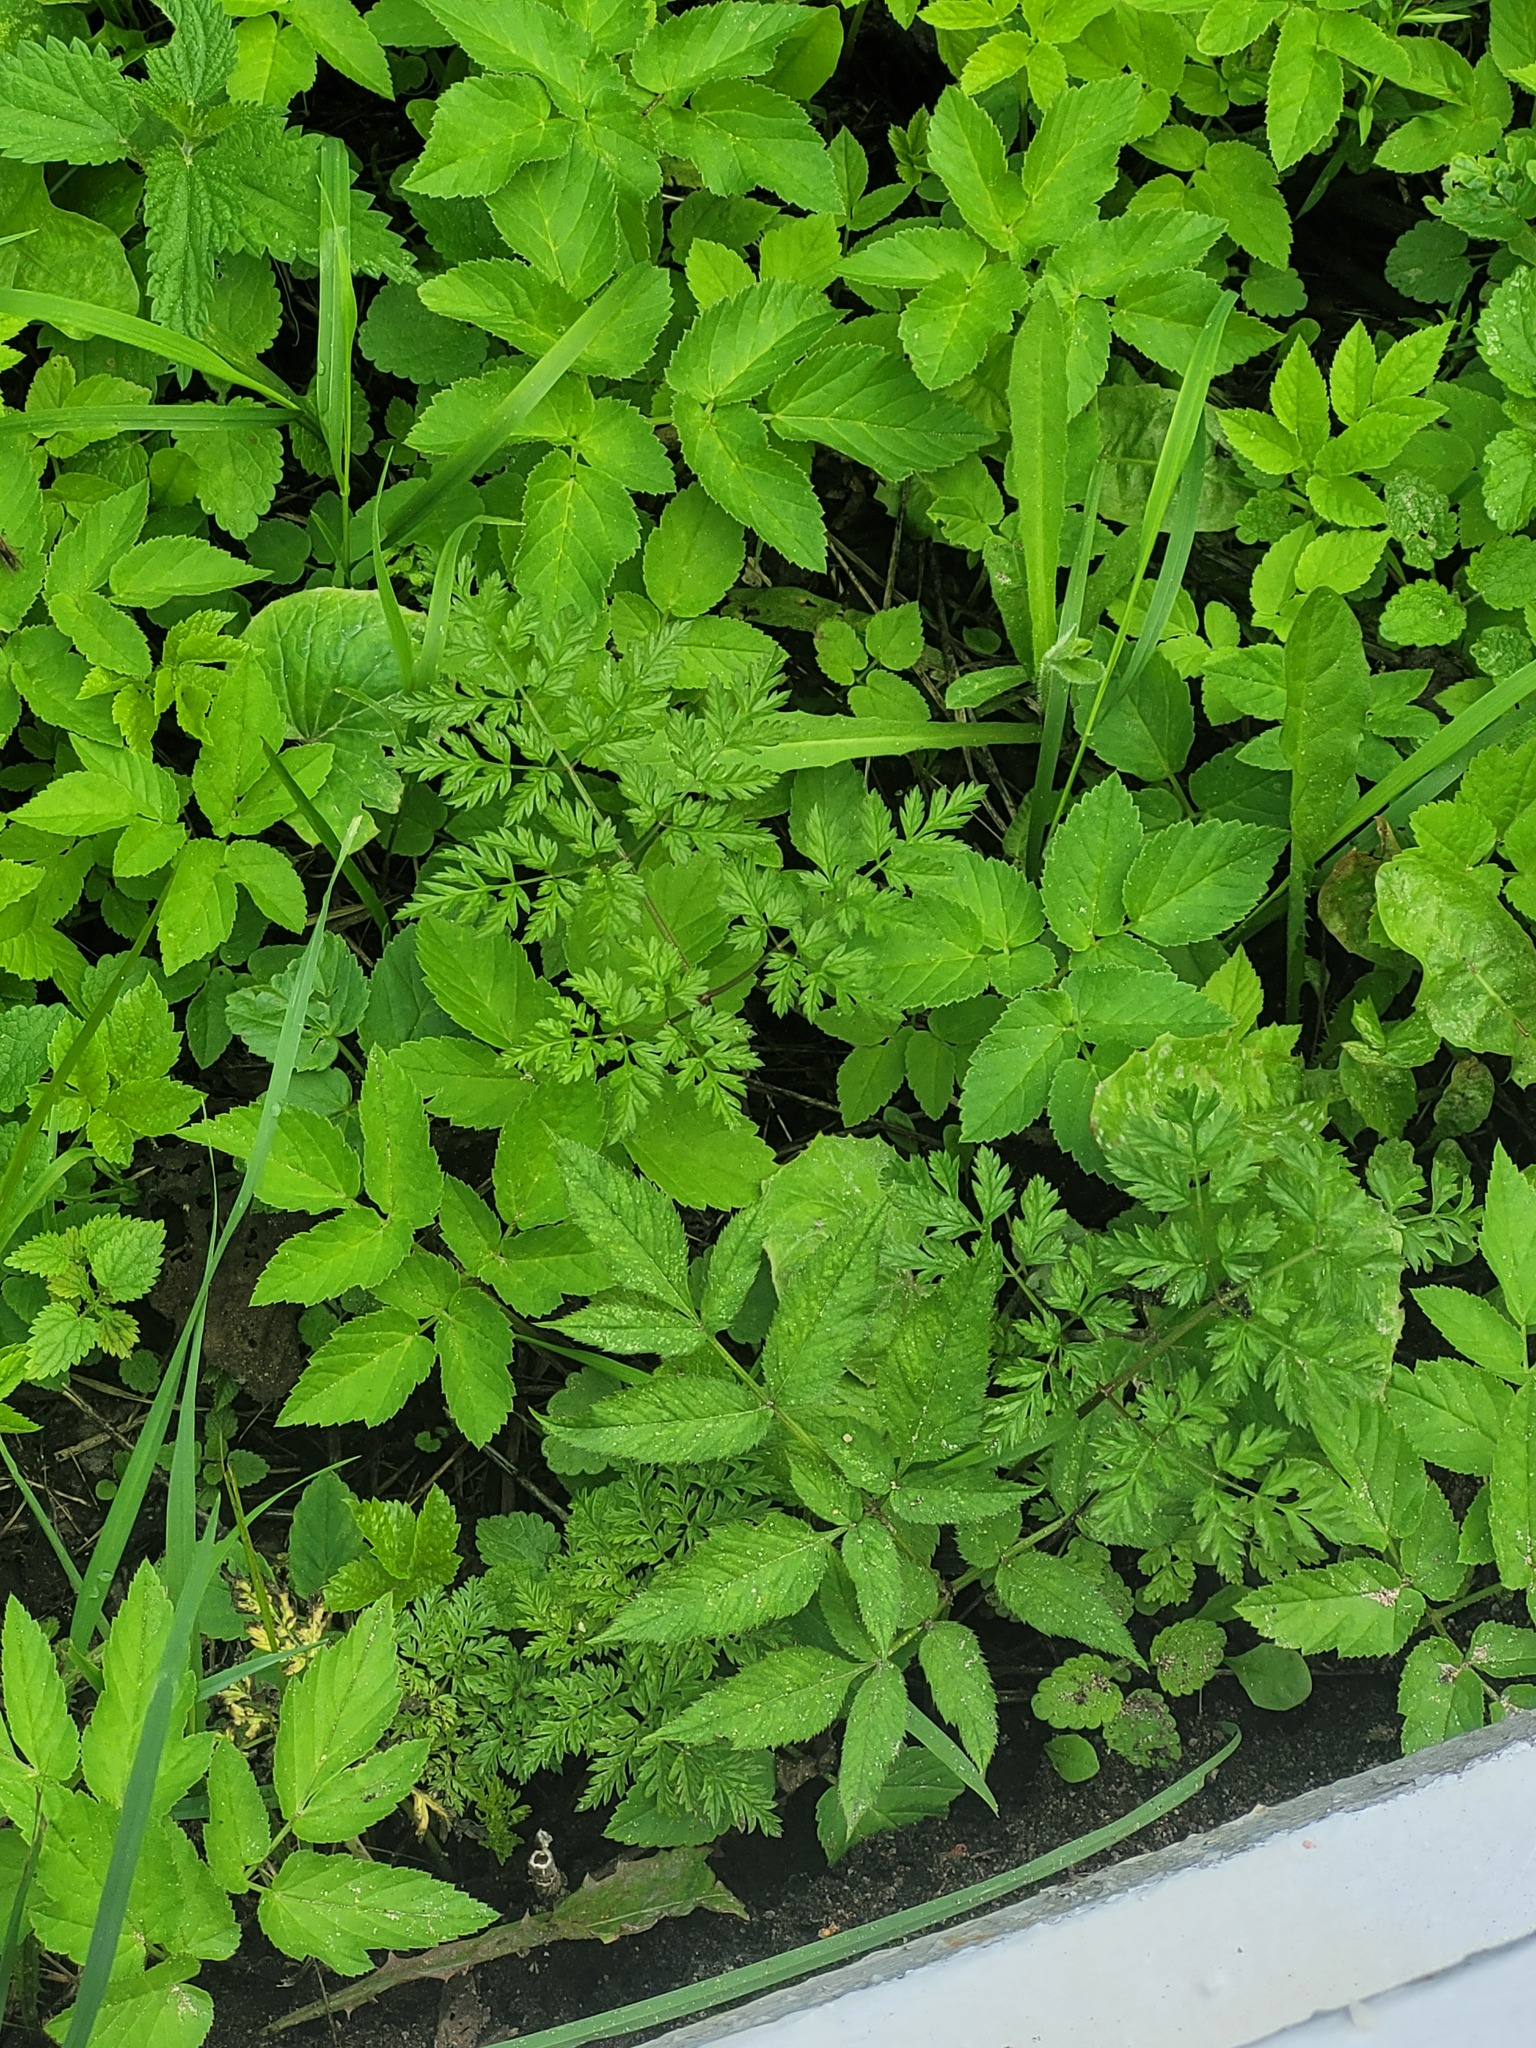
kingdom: Plantae
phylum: Tracheophyta
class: Magnoliopsida
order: Apiales
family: Apiaceae
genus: Anthriscus
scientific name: Anthriscus sylvestris
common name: Cow parsley
